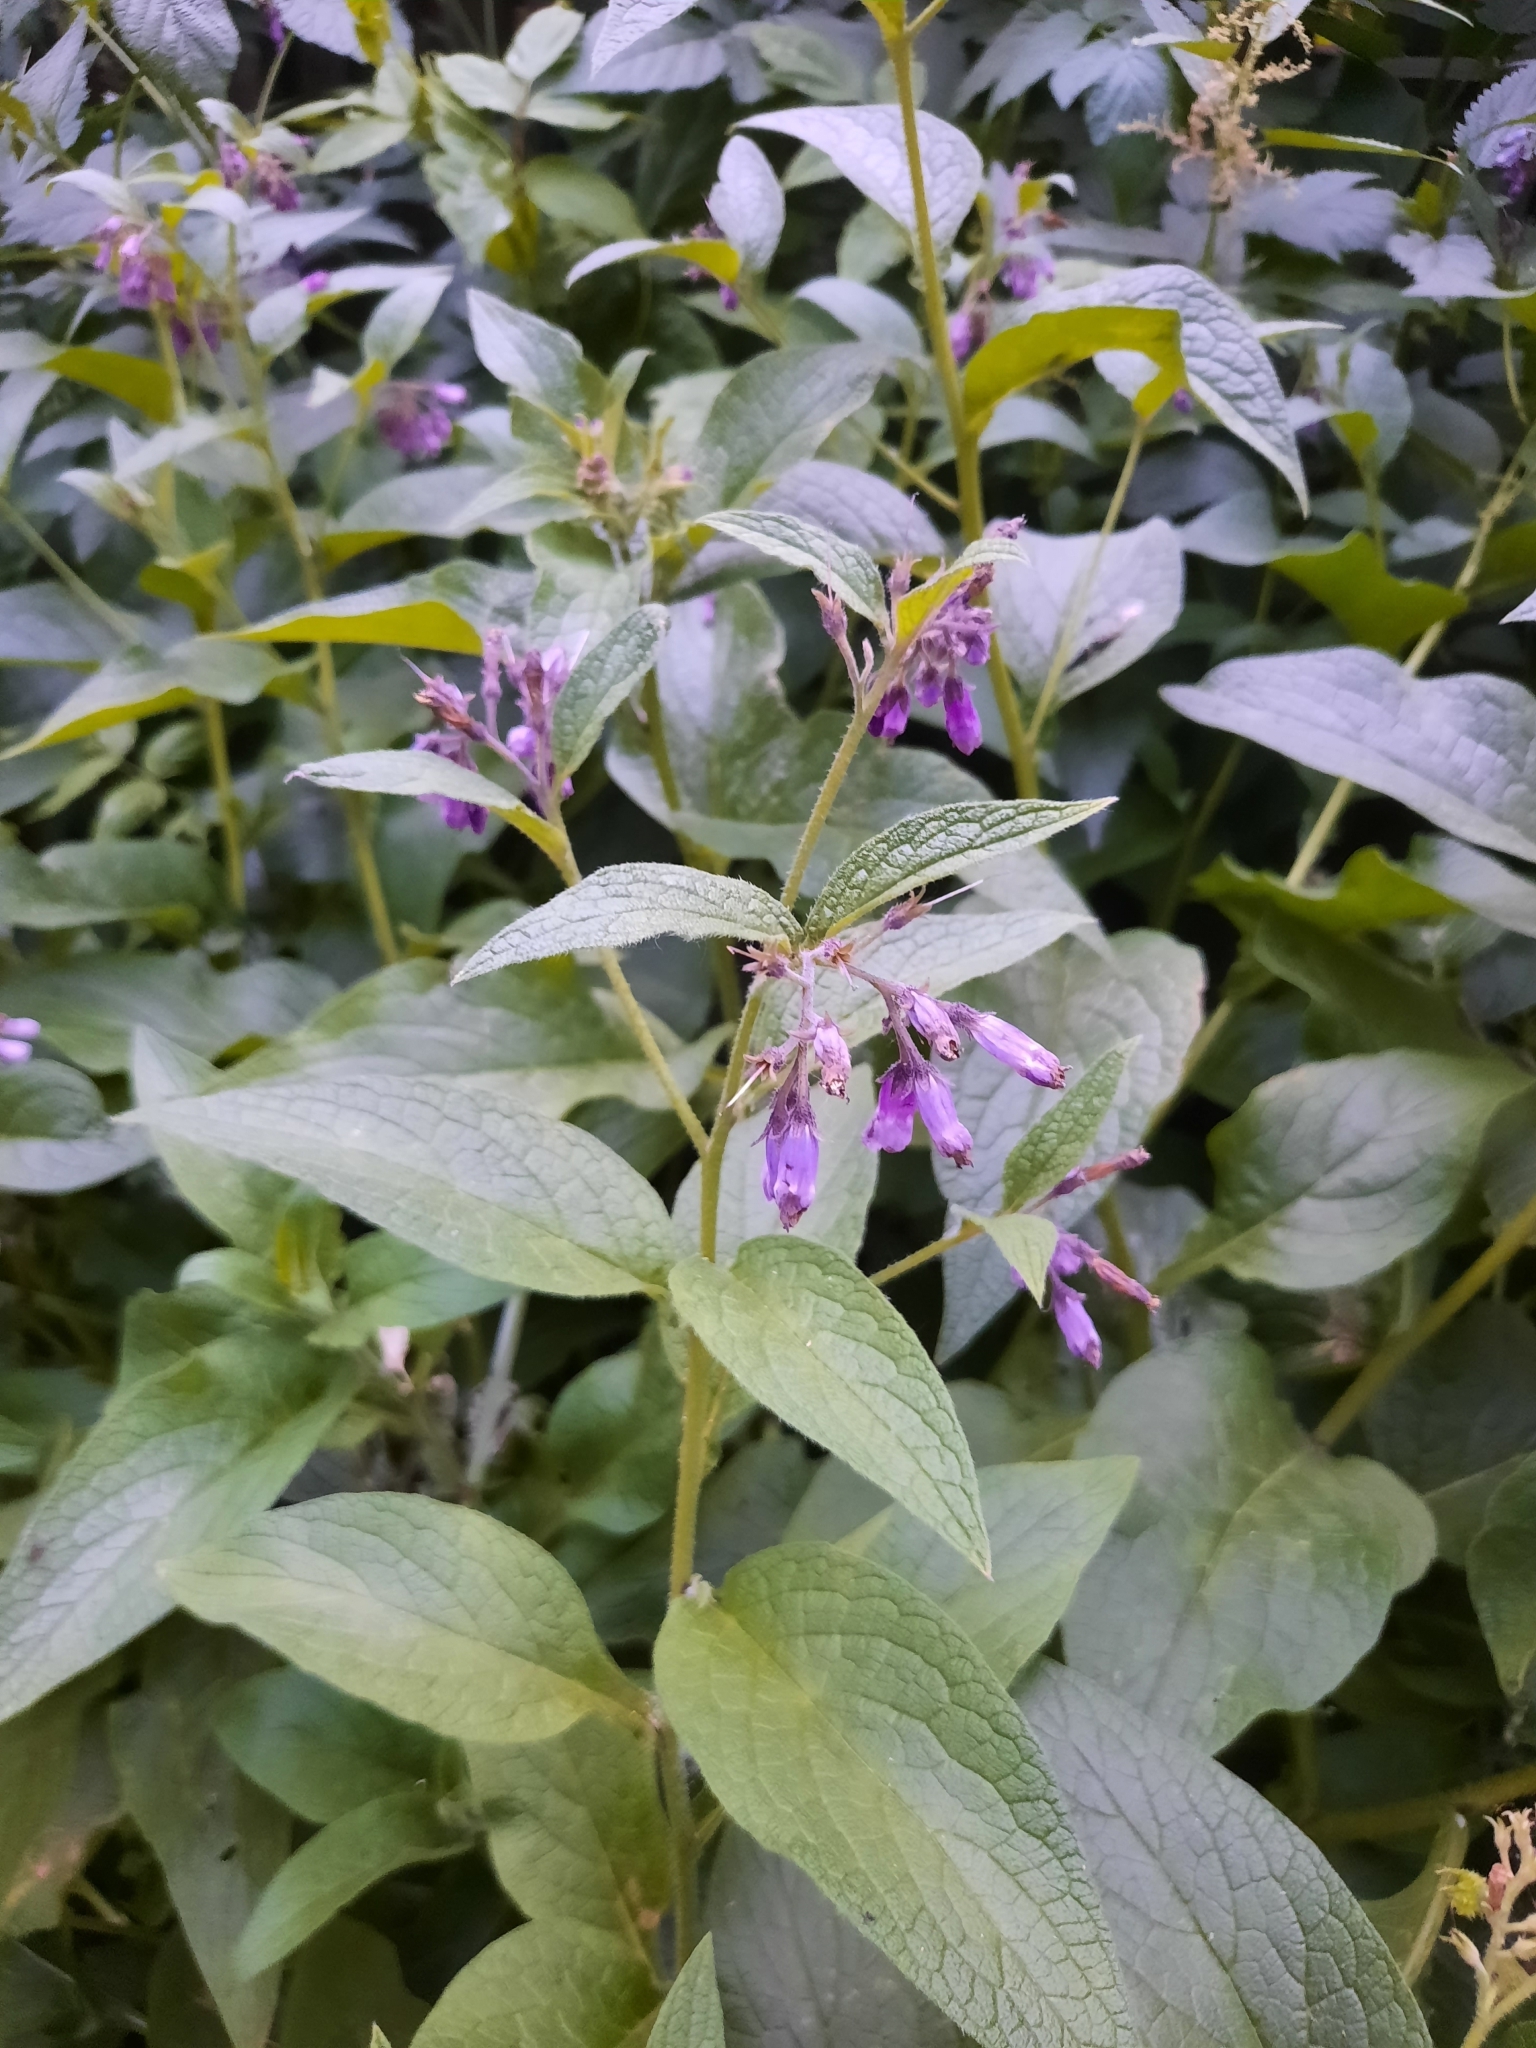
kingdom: Plantae
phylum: Tracheophyta
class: Magnoliopsida
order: Boraginales
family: Boraginaceae
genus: Symphytum
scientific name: Symphytum uplandicum
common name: Russian comfrey
